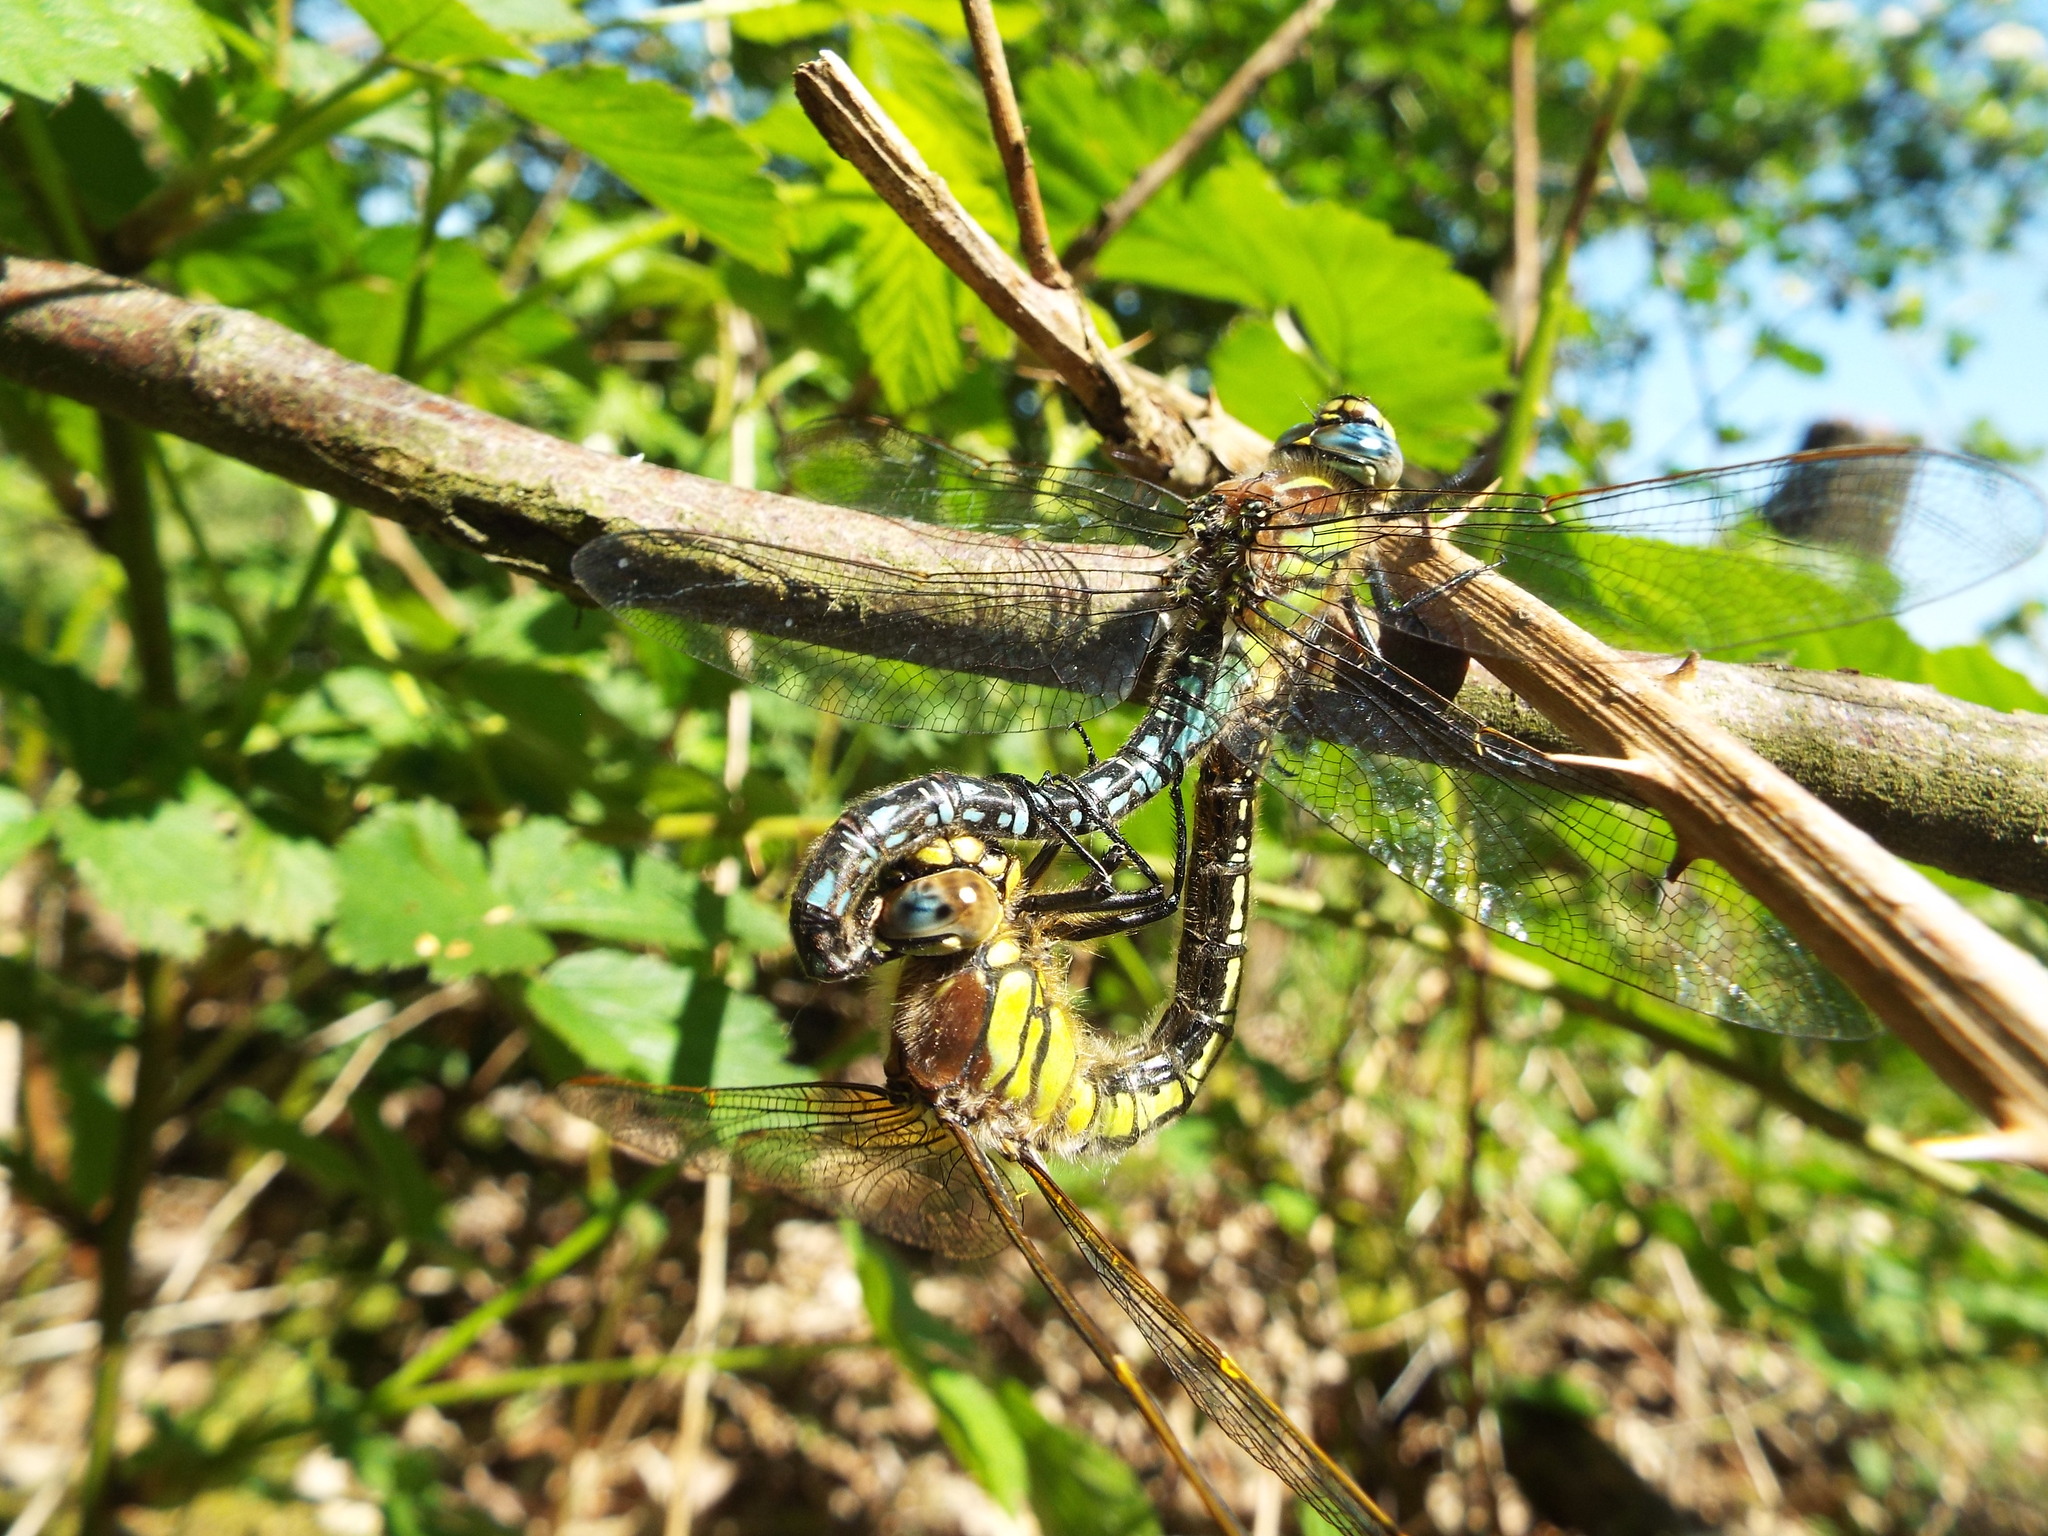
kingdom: Animalia
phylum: Arthropoda
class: Insecta
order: Odonata
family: Aeshnidae
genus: Brachytron
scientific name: Brachytron pratense
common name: Hairy hawker
